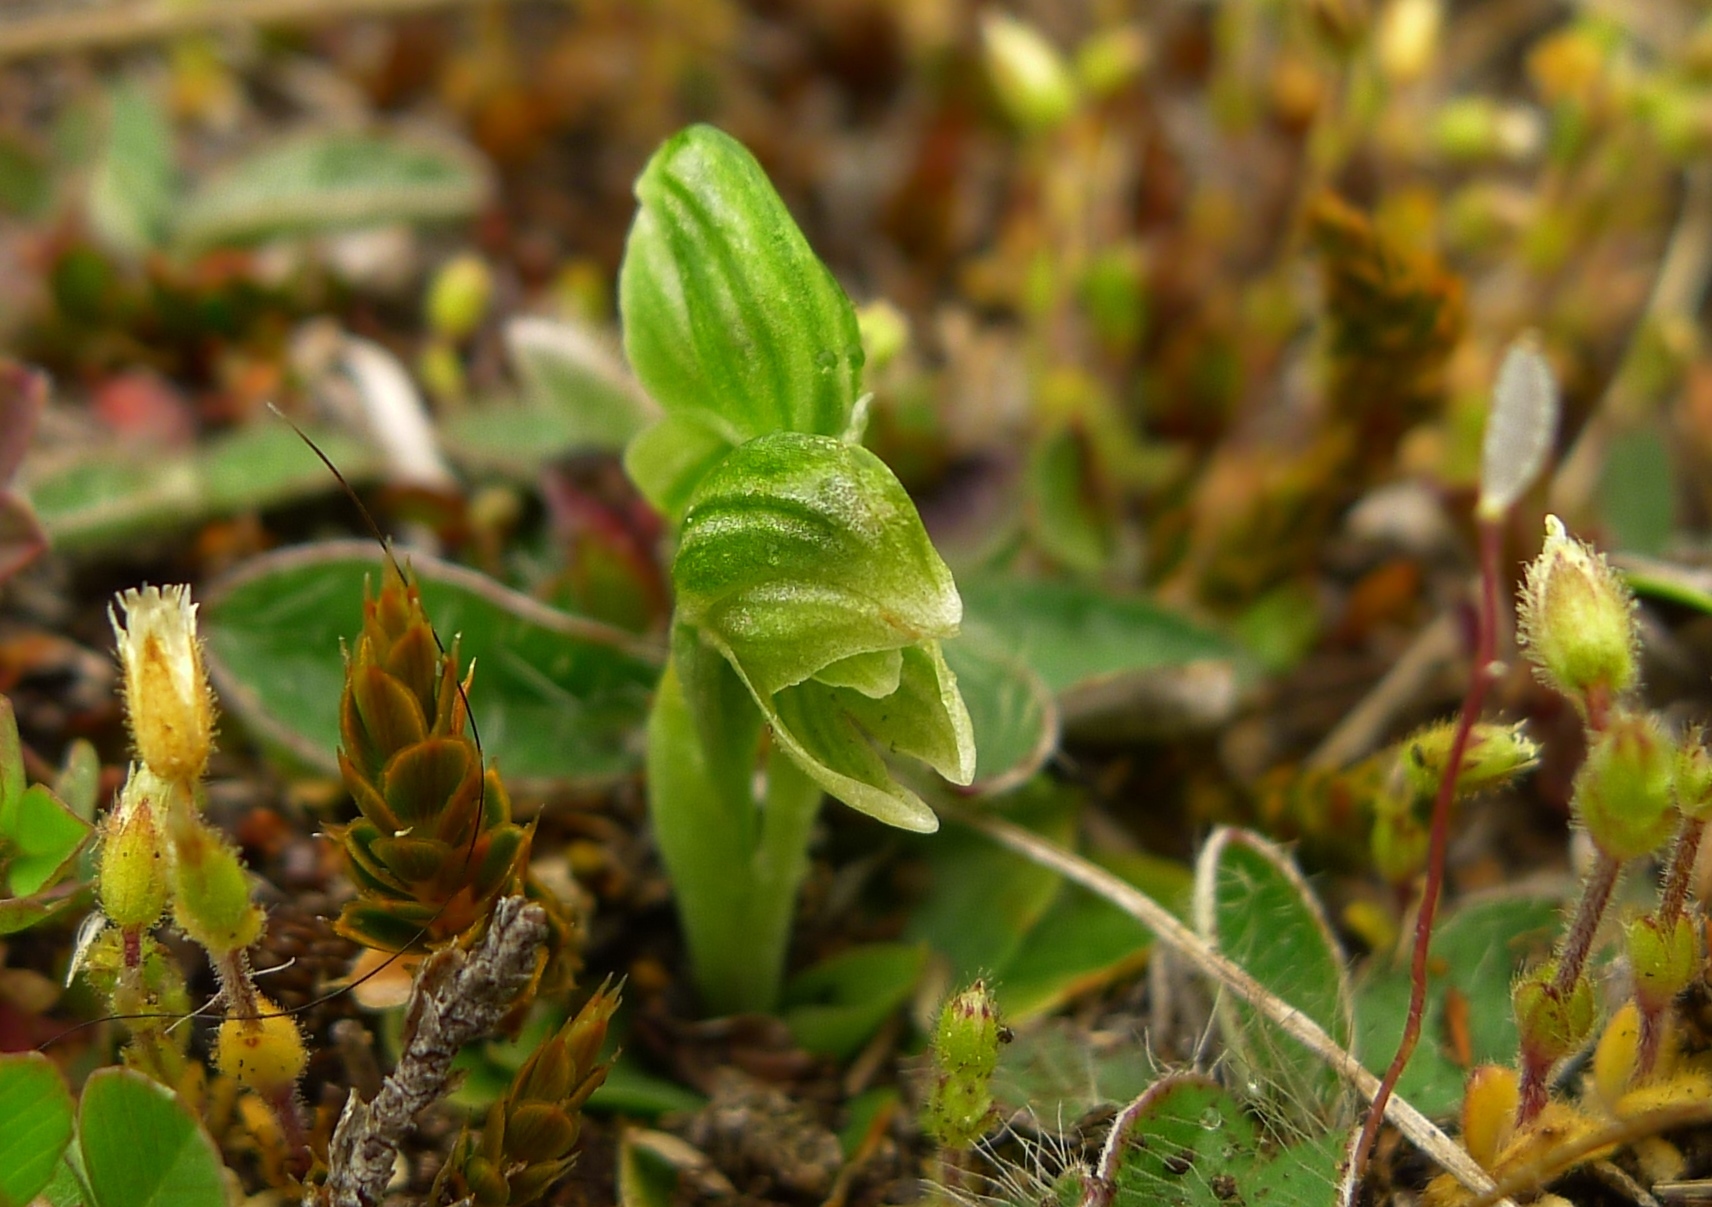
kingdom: Plantae
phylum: Tracheophyta
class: Liliopsida
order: Asparagales
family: Orchidaceae
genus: Pterostylis
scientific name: Pterostylis tanypoda
